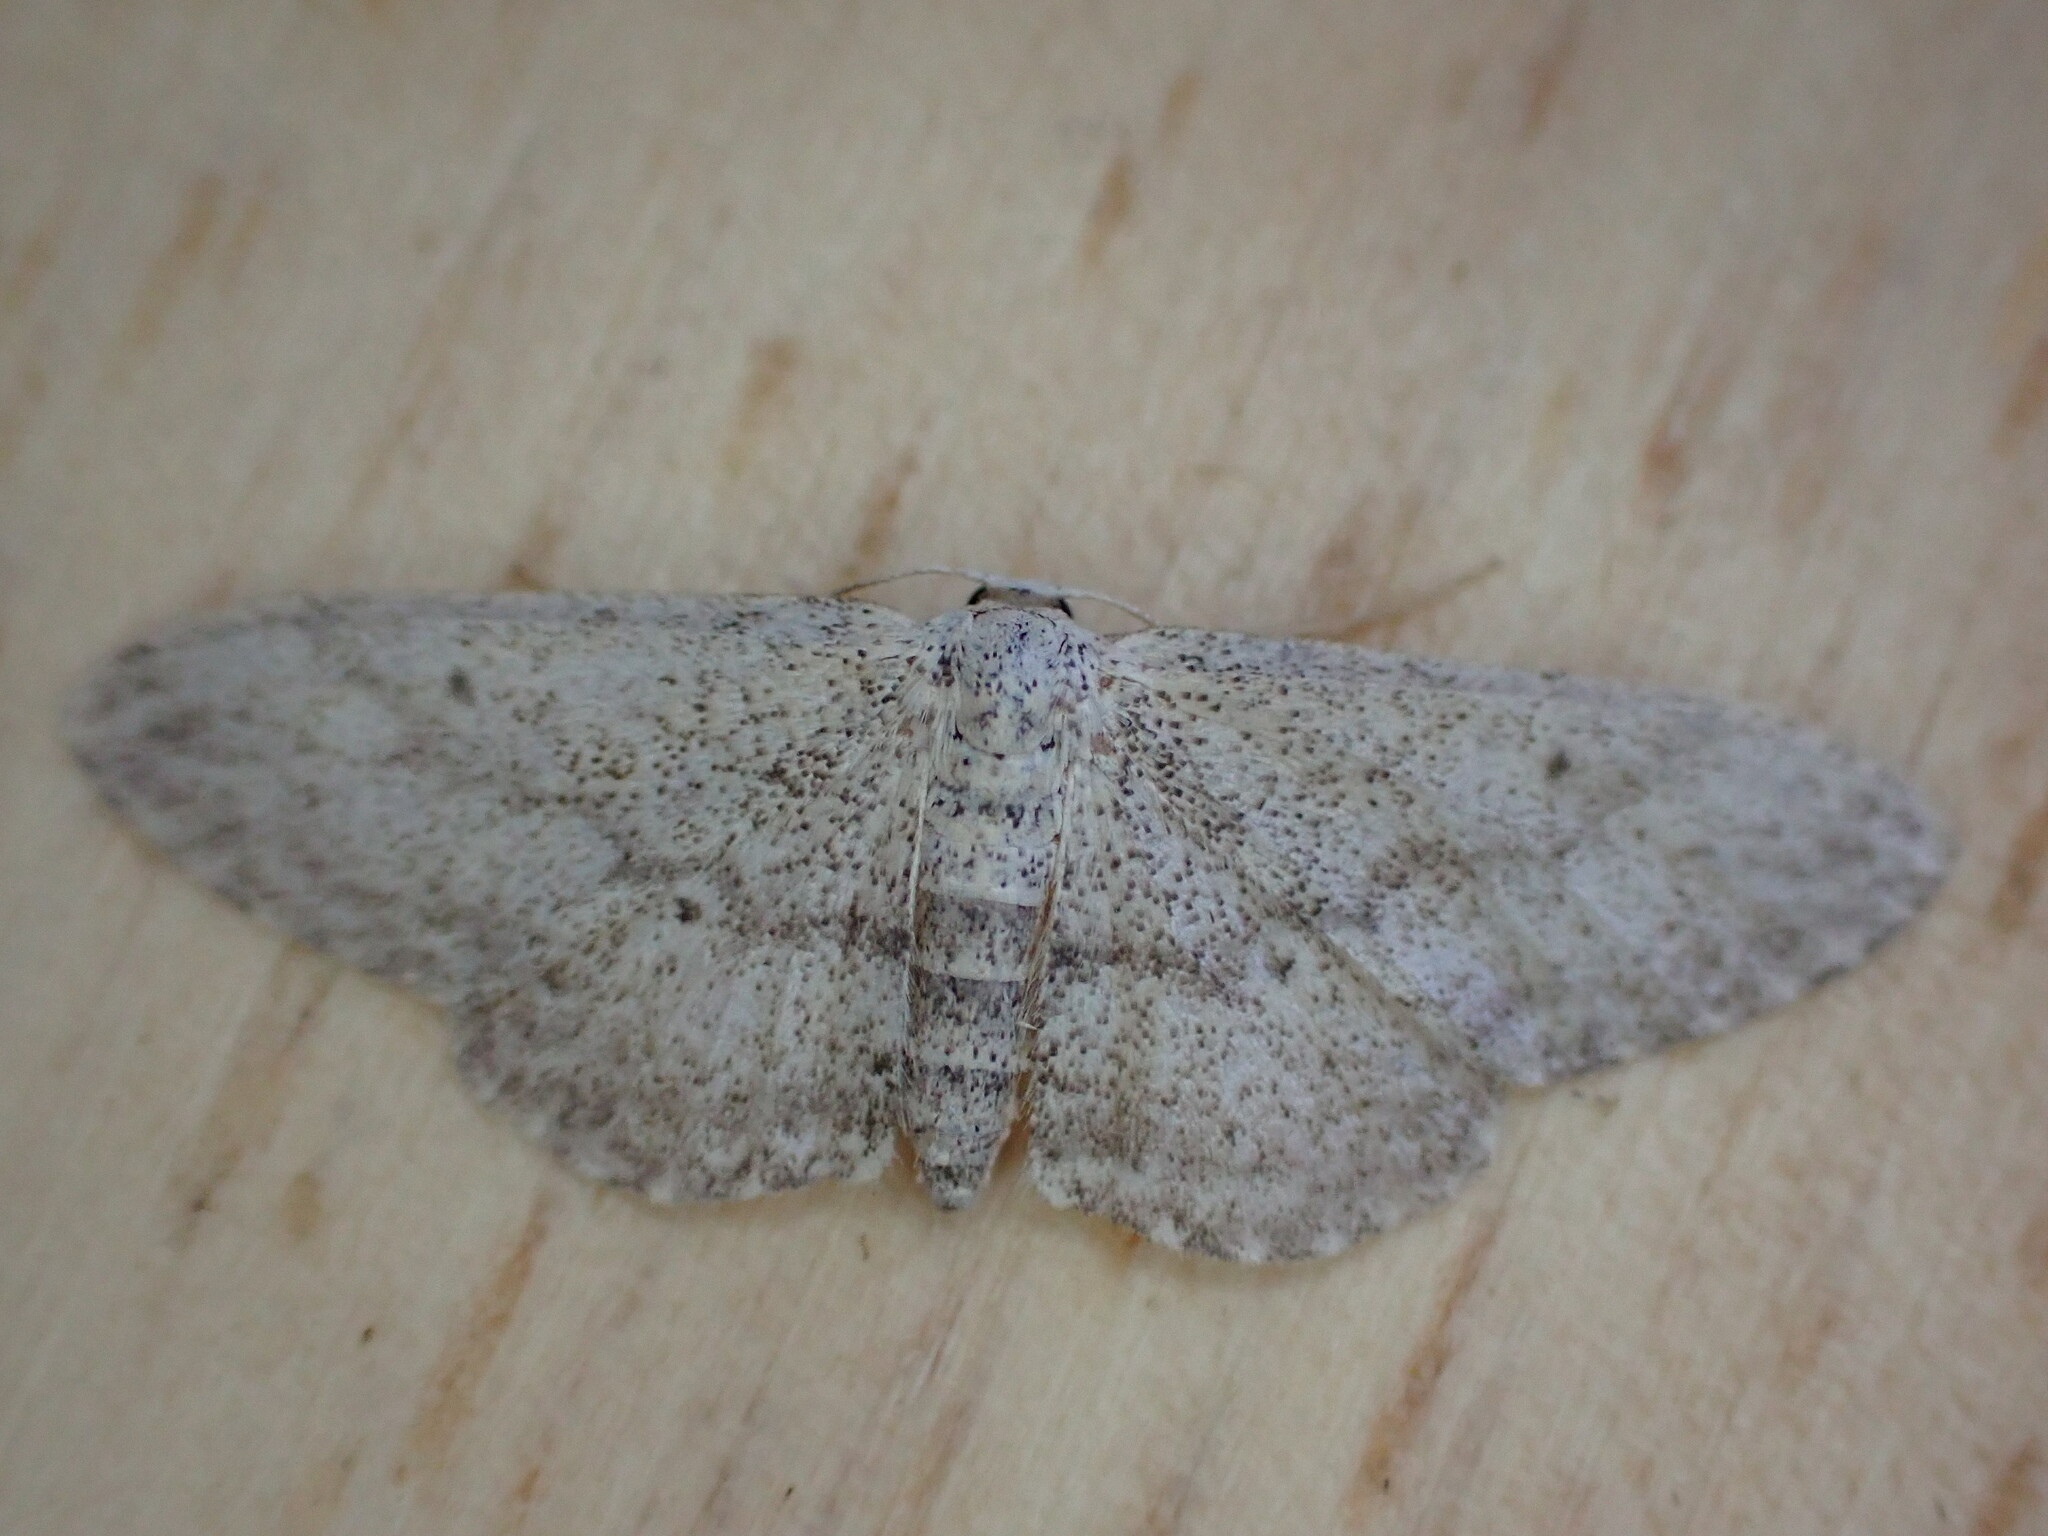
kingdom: Animalia
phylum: Arthropoda
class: Insecta
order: Lepidoptera
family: Geometridae
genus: Idaea
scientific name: Idaea seriata
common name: Small dusty wave
